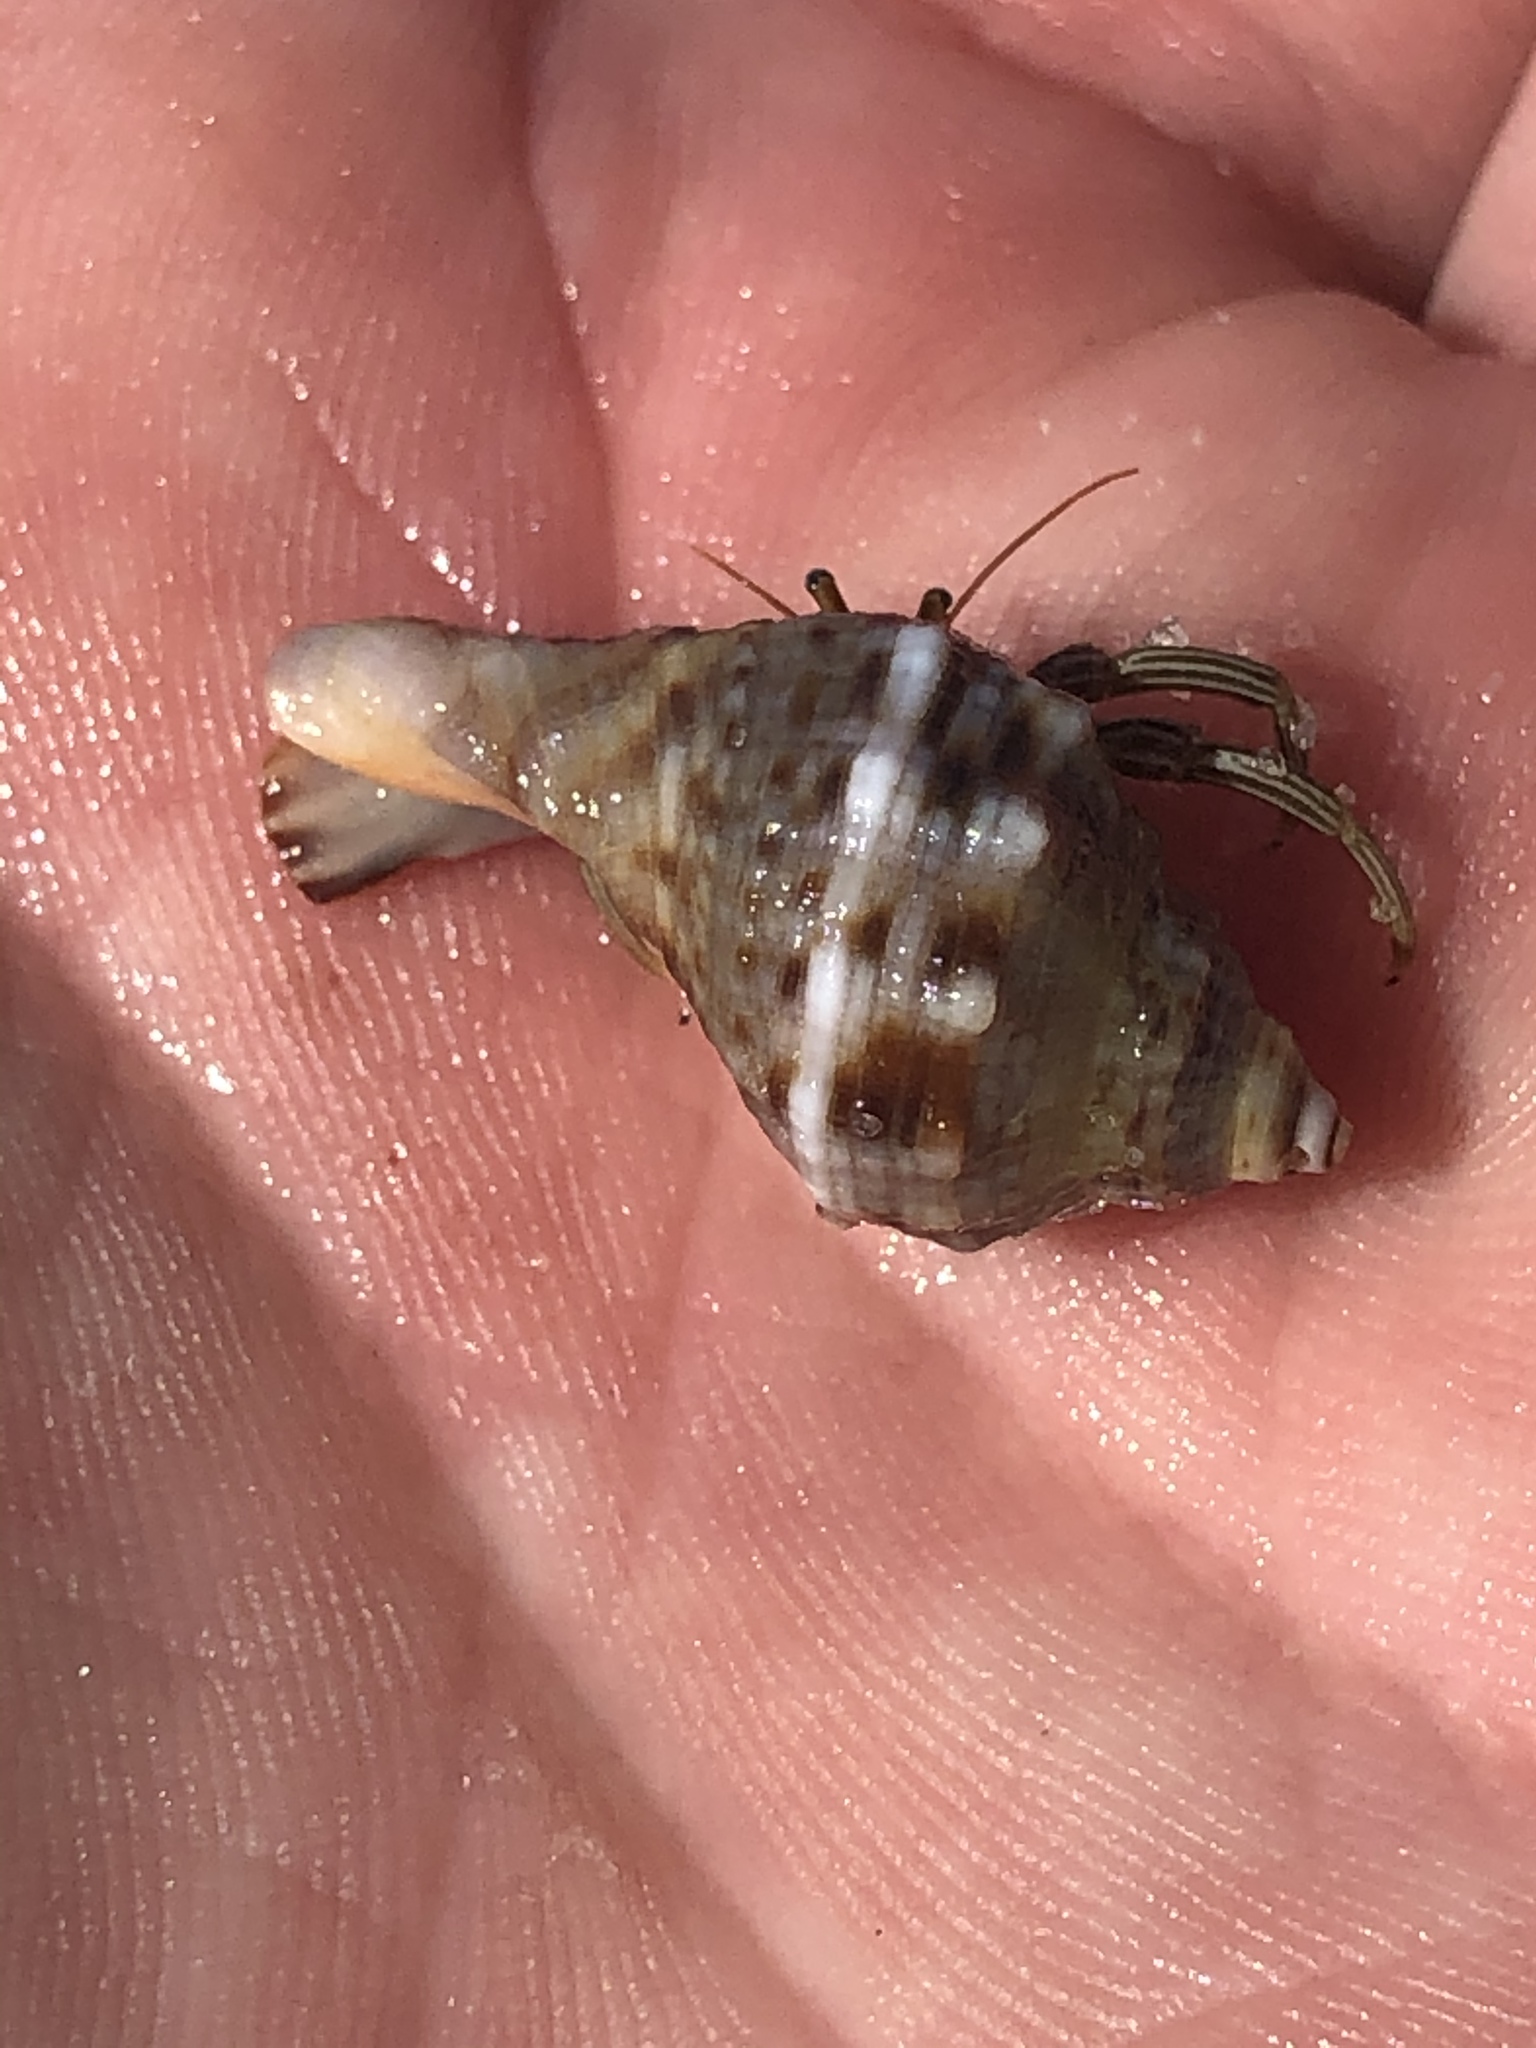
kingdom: Animalia
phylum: Mollusca
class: Gastropoda
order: Neogastropoda
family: Muricidae
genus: Stramonita
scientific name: Stramonita floridana
